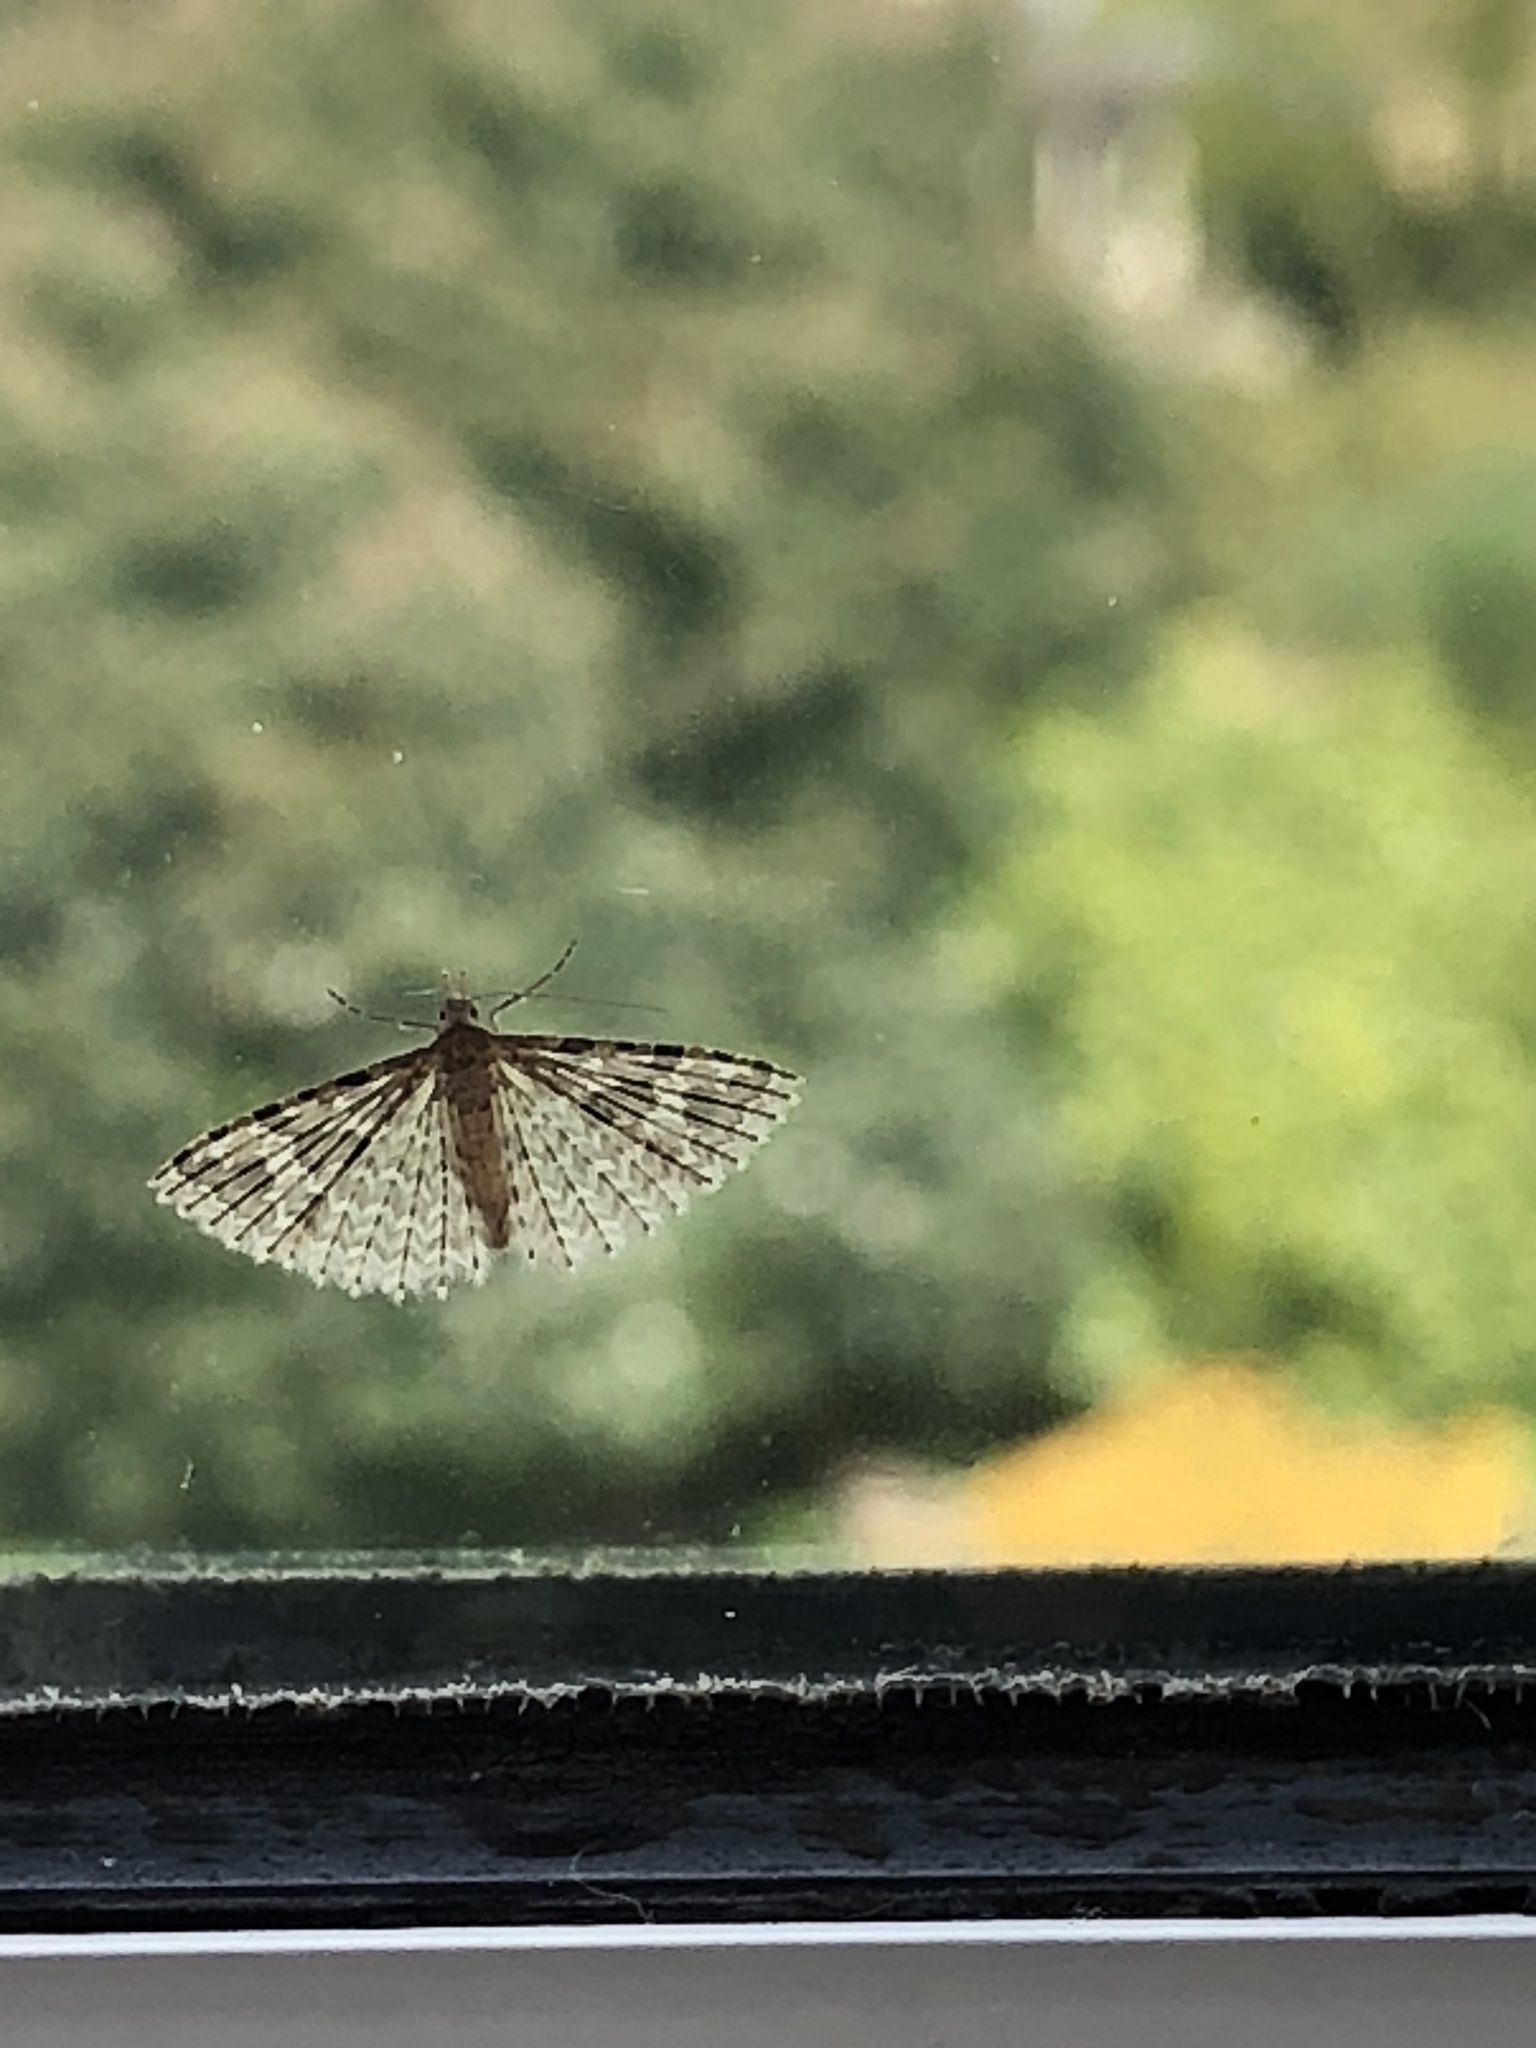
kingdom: Animalia
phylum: Arthropoda
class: Insecta
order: Lepidoptera
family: Alucitidae
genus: Alucita
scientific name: Alucita hexadactyla
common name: Twenty-plume moth
